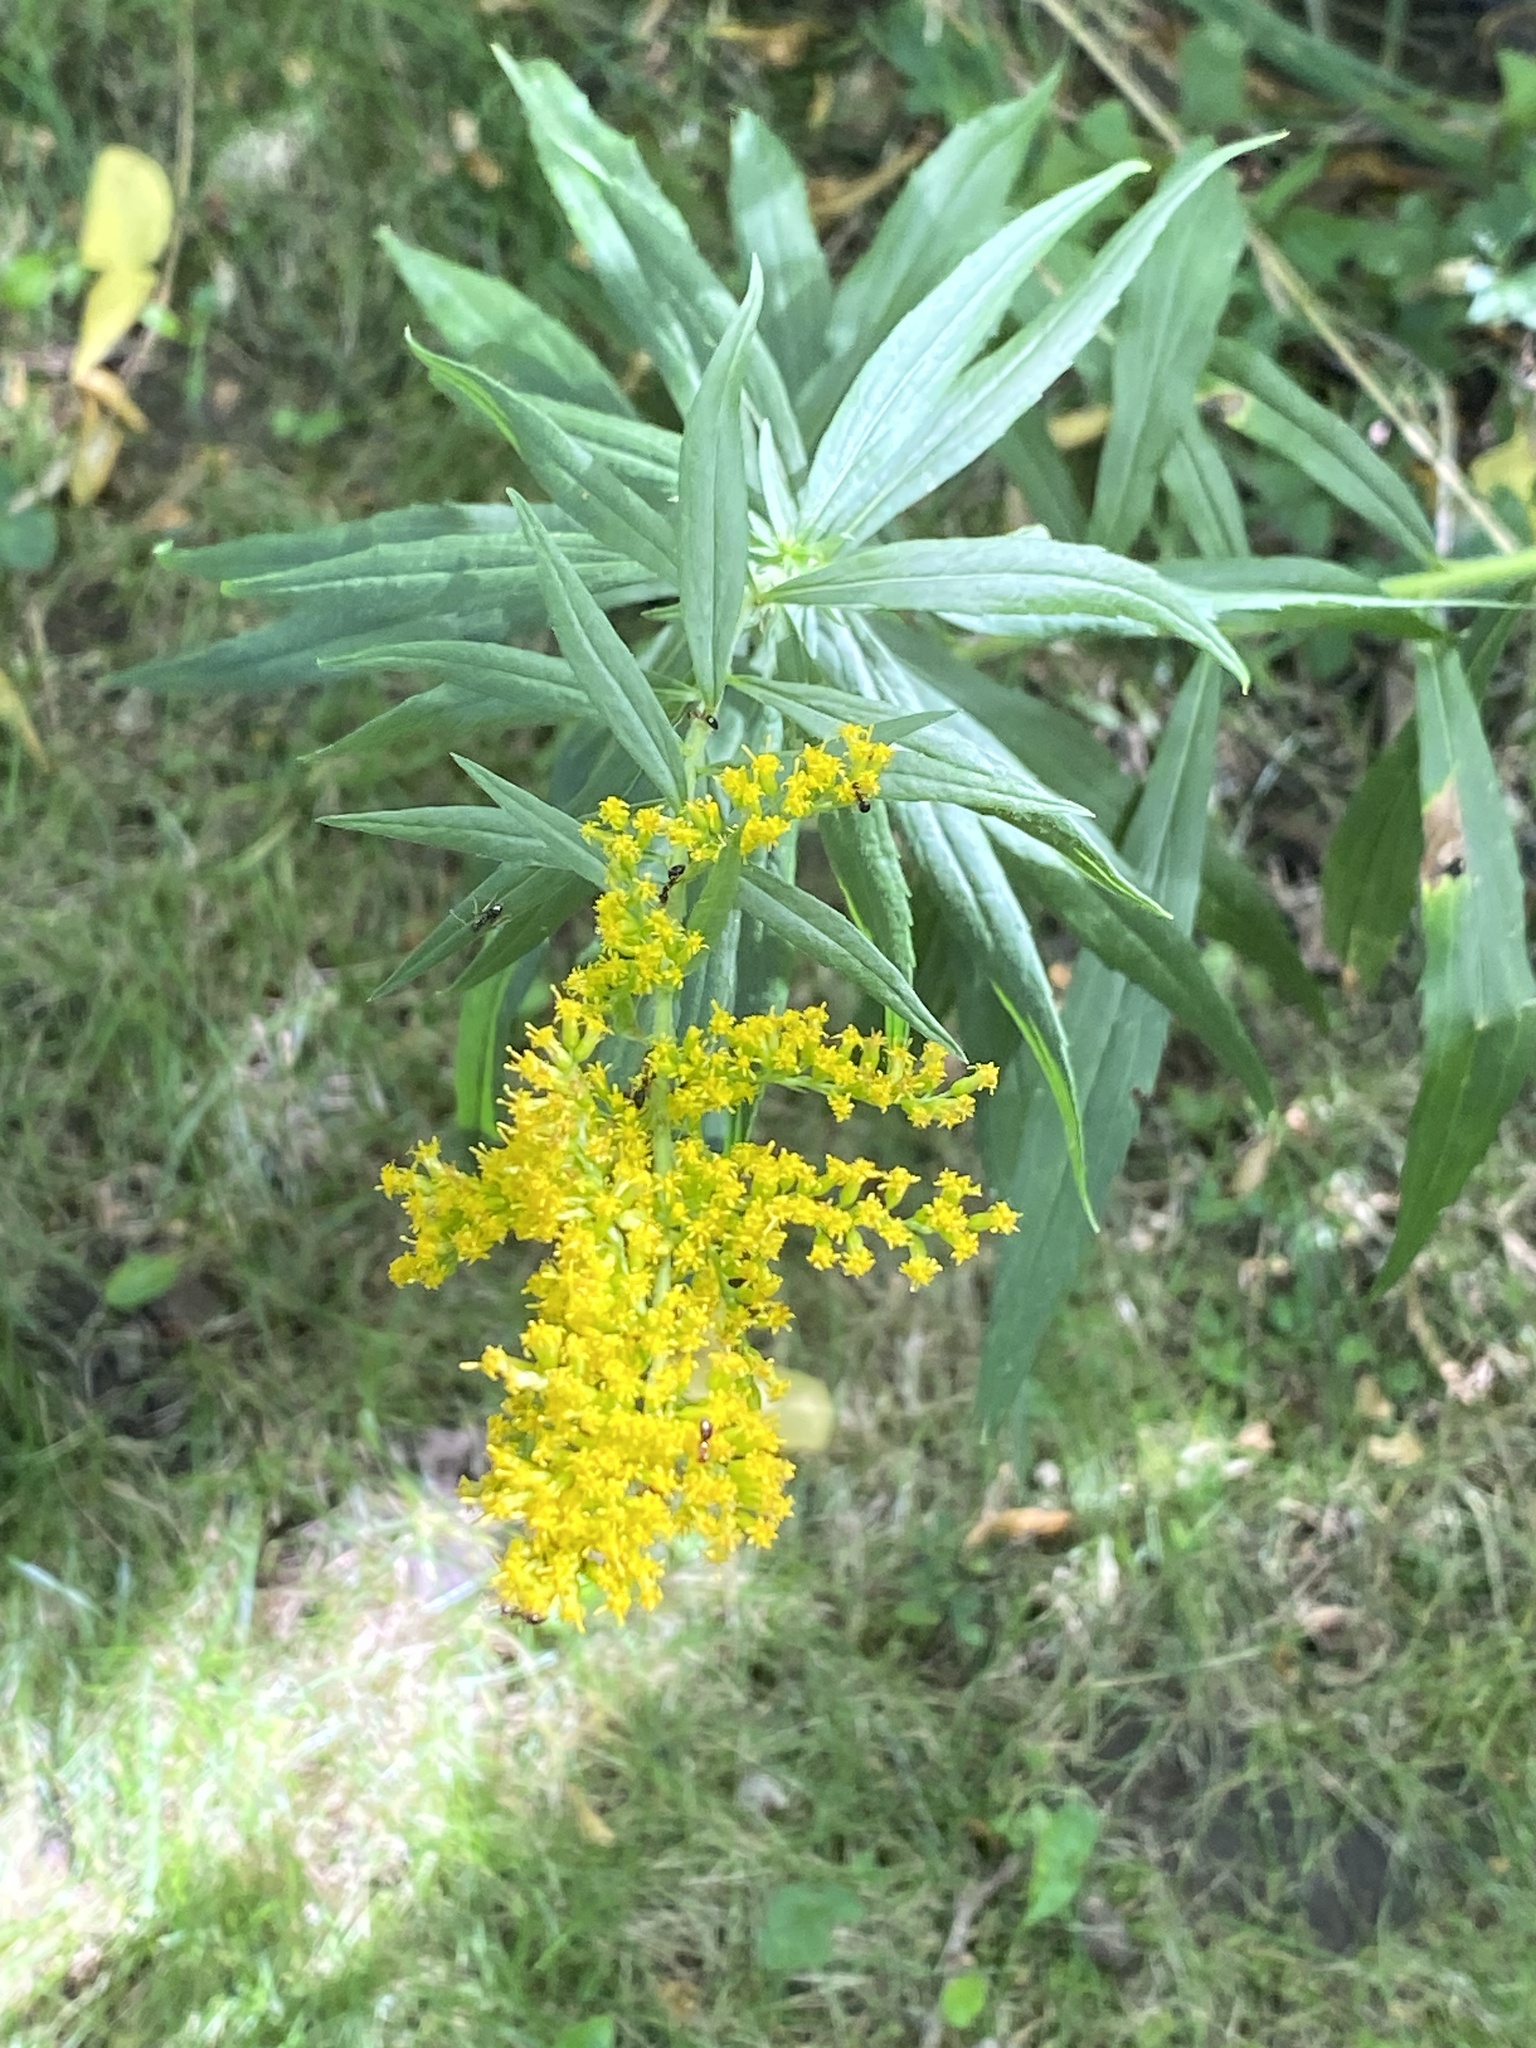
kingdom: Plantae
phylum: Tracheophyta
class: Magnoliopsida
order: Asterales
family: Asteraceae
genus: Solidago
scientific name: Solidago altissima
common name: Late goldenrod
